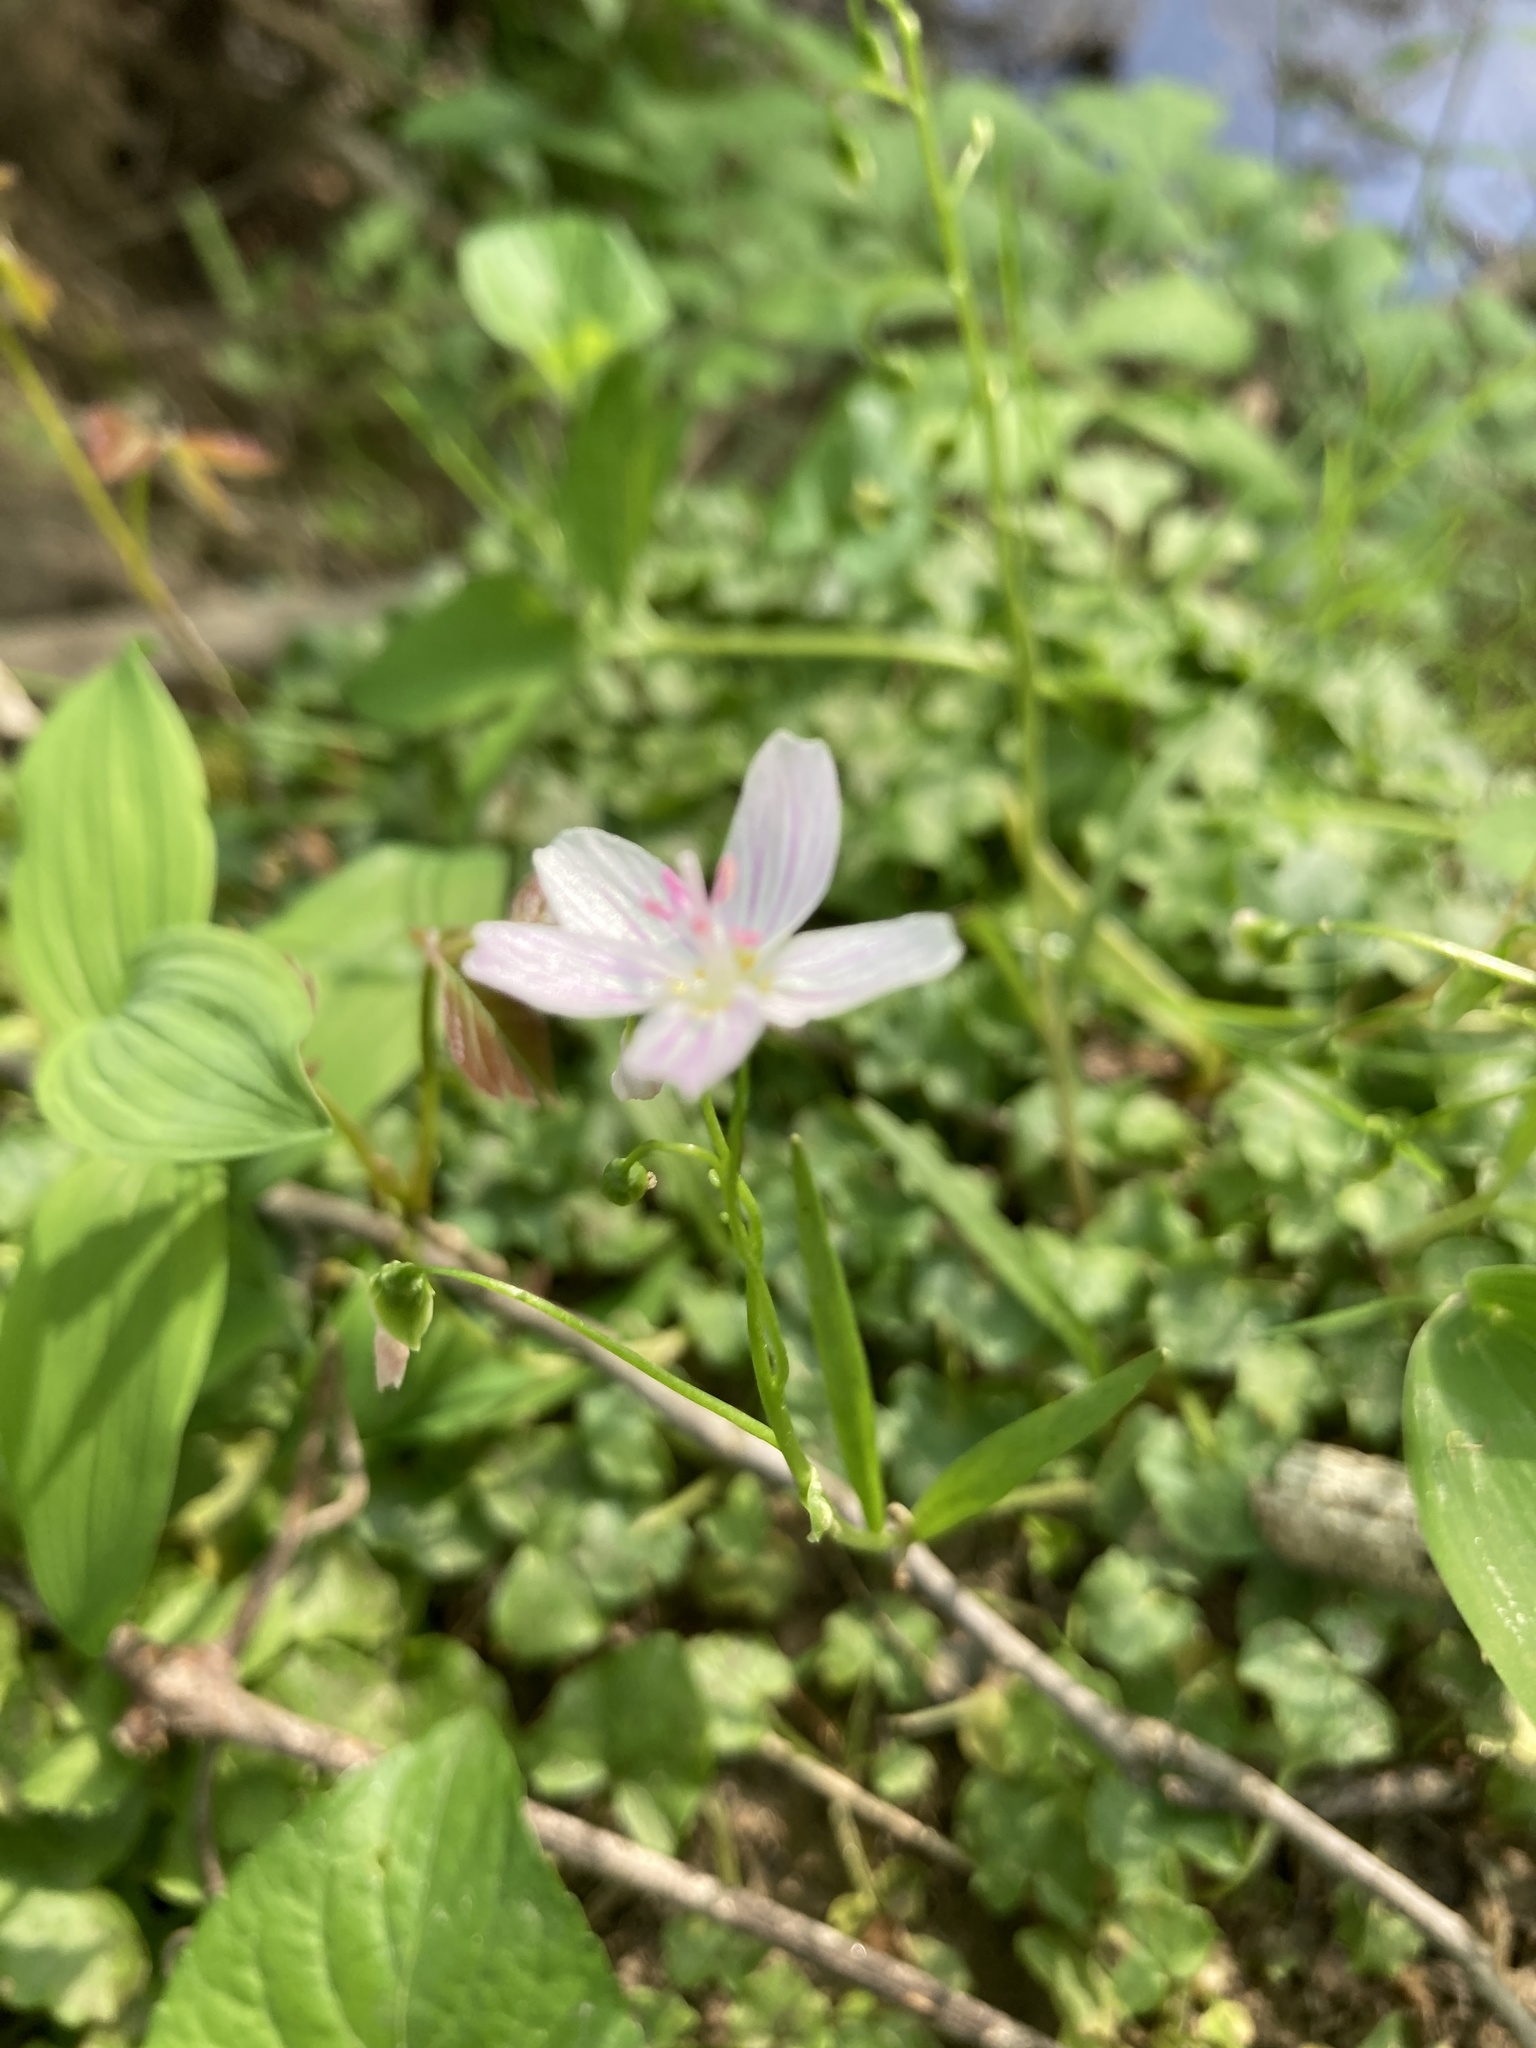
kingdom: Plantae
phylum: Tracheophyta
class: Magnoliopsida
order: Caryophyllales
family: Montiaceae
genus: Claytonia
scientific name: Claytonia virginica
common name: Virginia springbeauty
